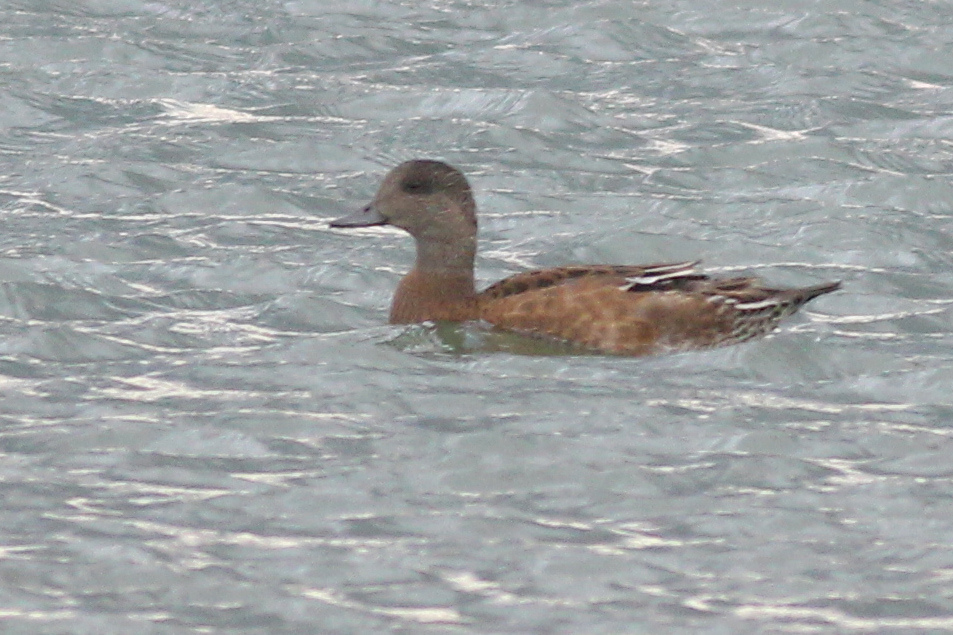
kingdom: Animalia
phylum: Chordata
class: Aves
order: Anseriformes
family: Anatidae
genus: Mareca
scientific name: Mareca americana
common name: American wigeon
